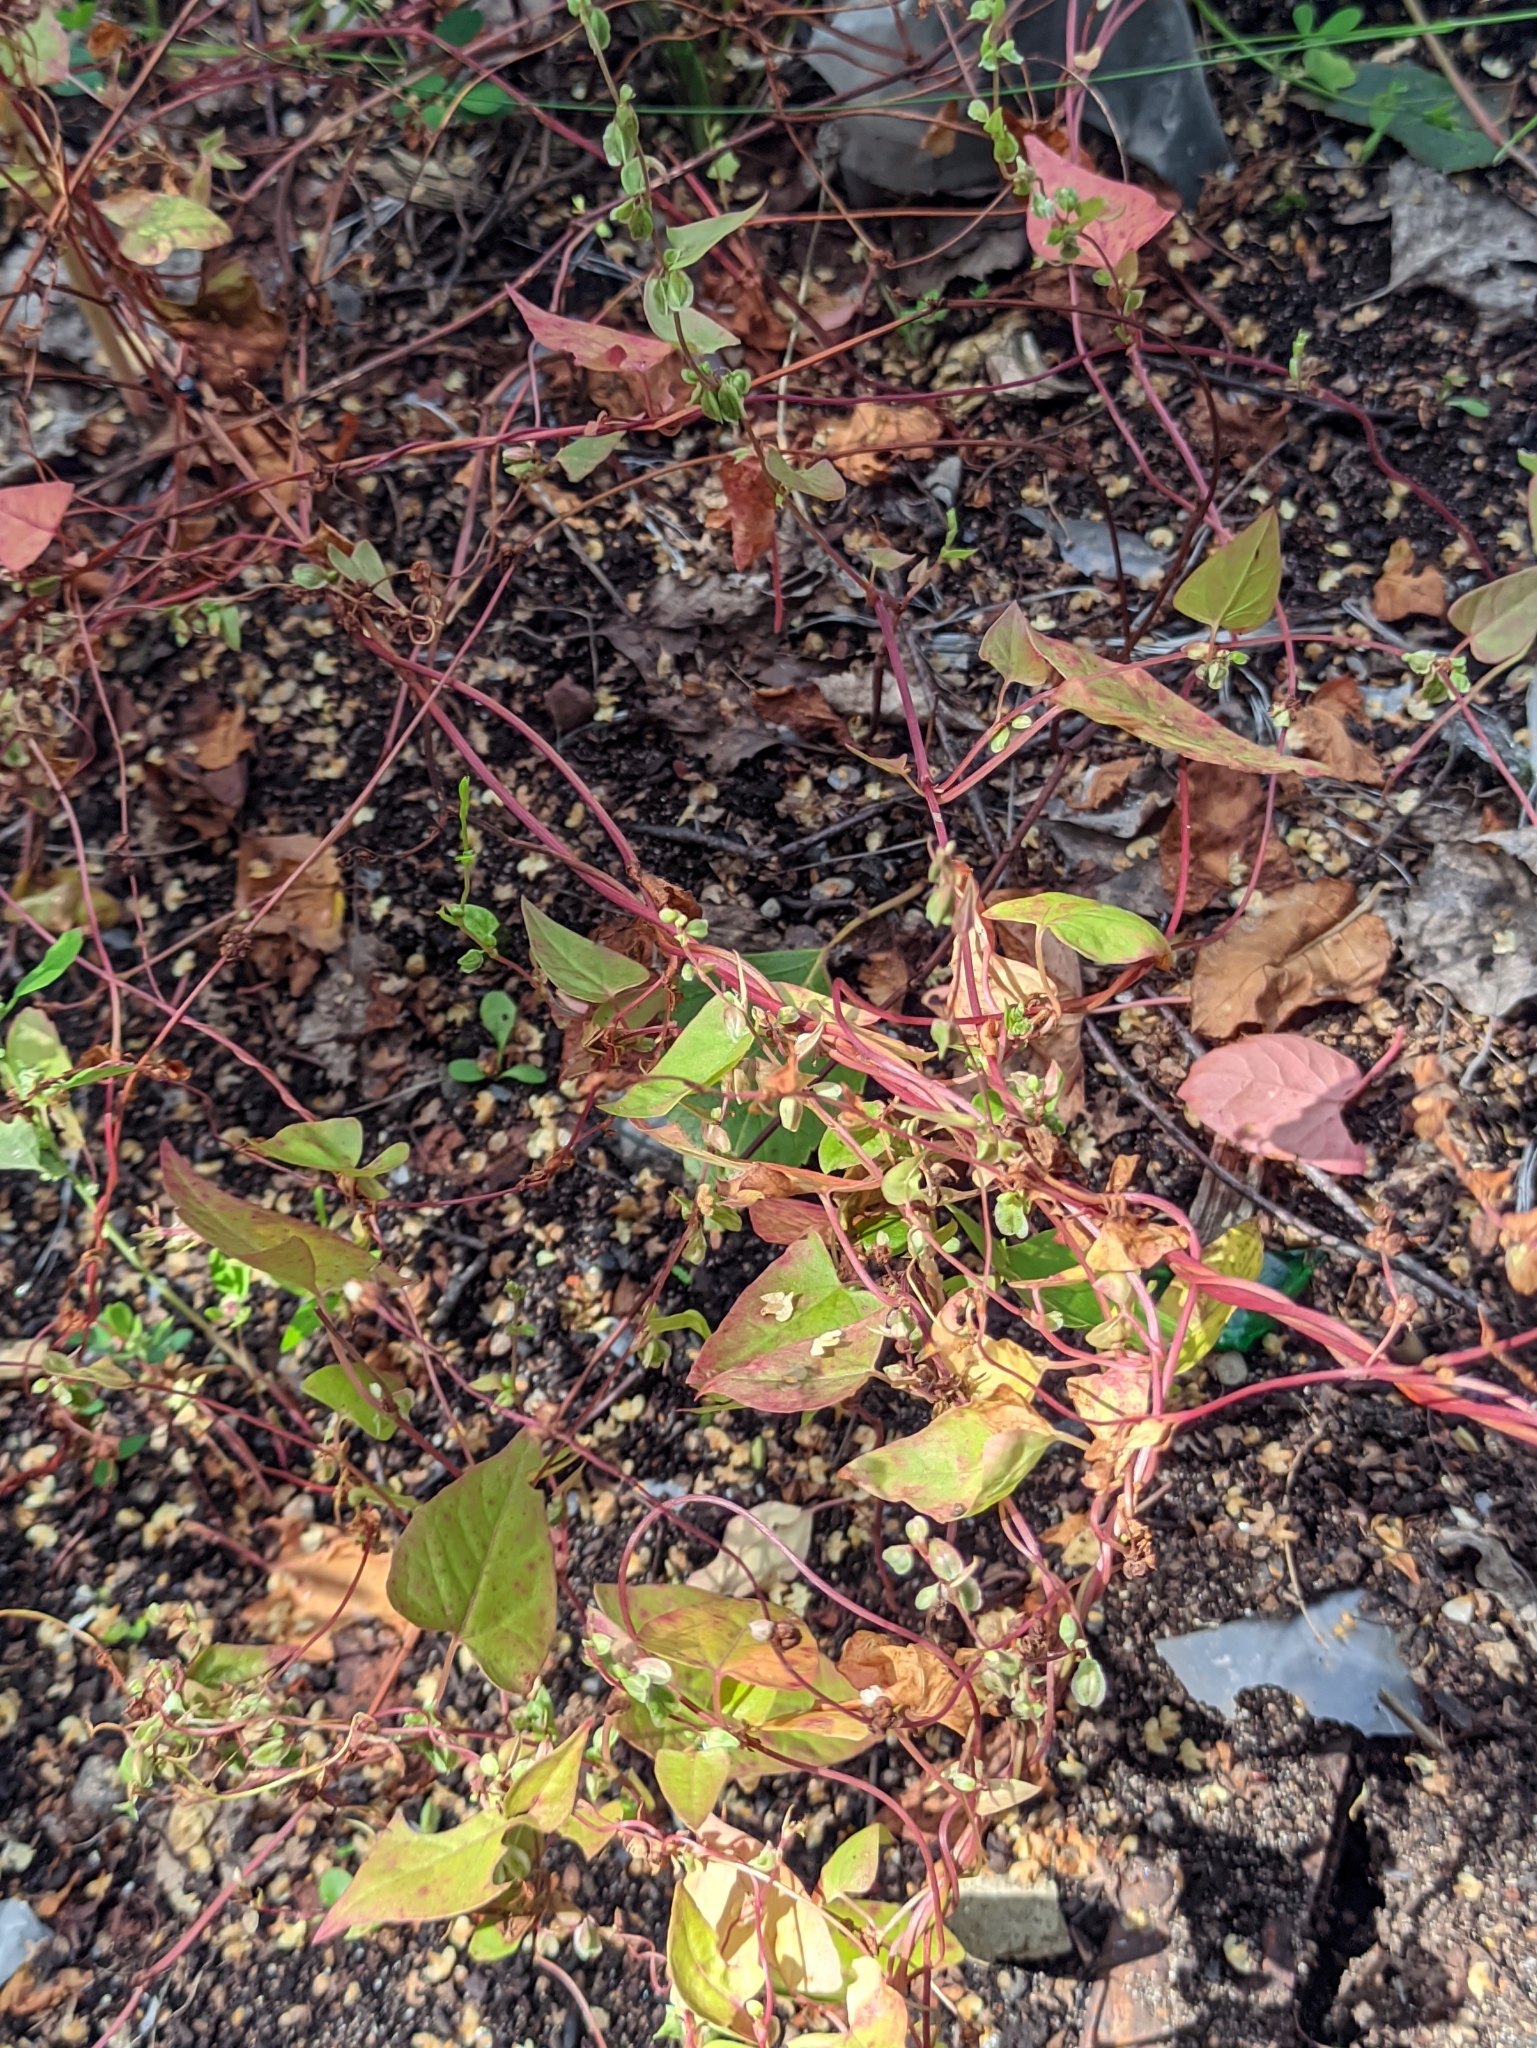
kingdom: Plantae
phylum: Tracheophyta
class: Magnoliopsida
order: Caryophyllales
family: Polygonaceae
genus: Fallopia
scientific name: Fallopia dumetorum
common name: Copse-bindweed
